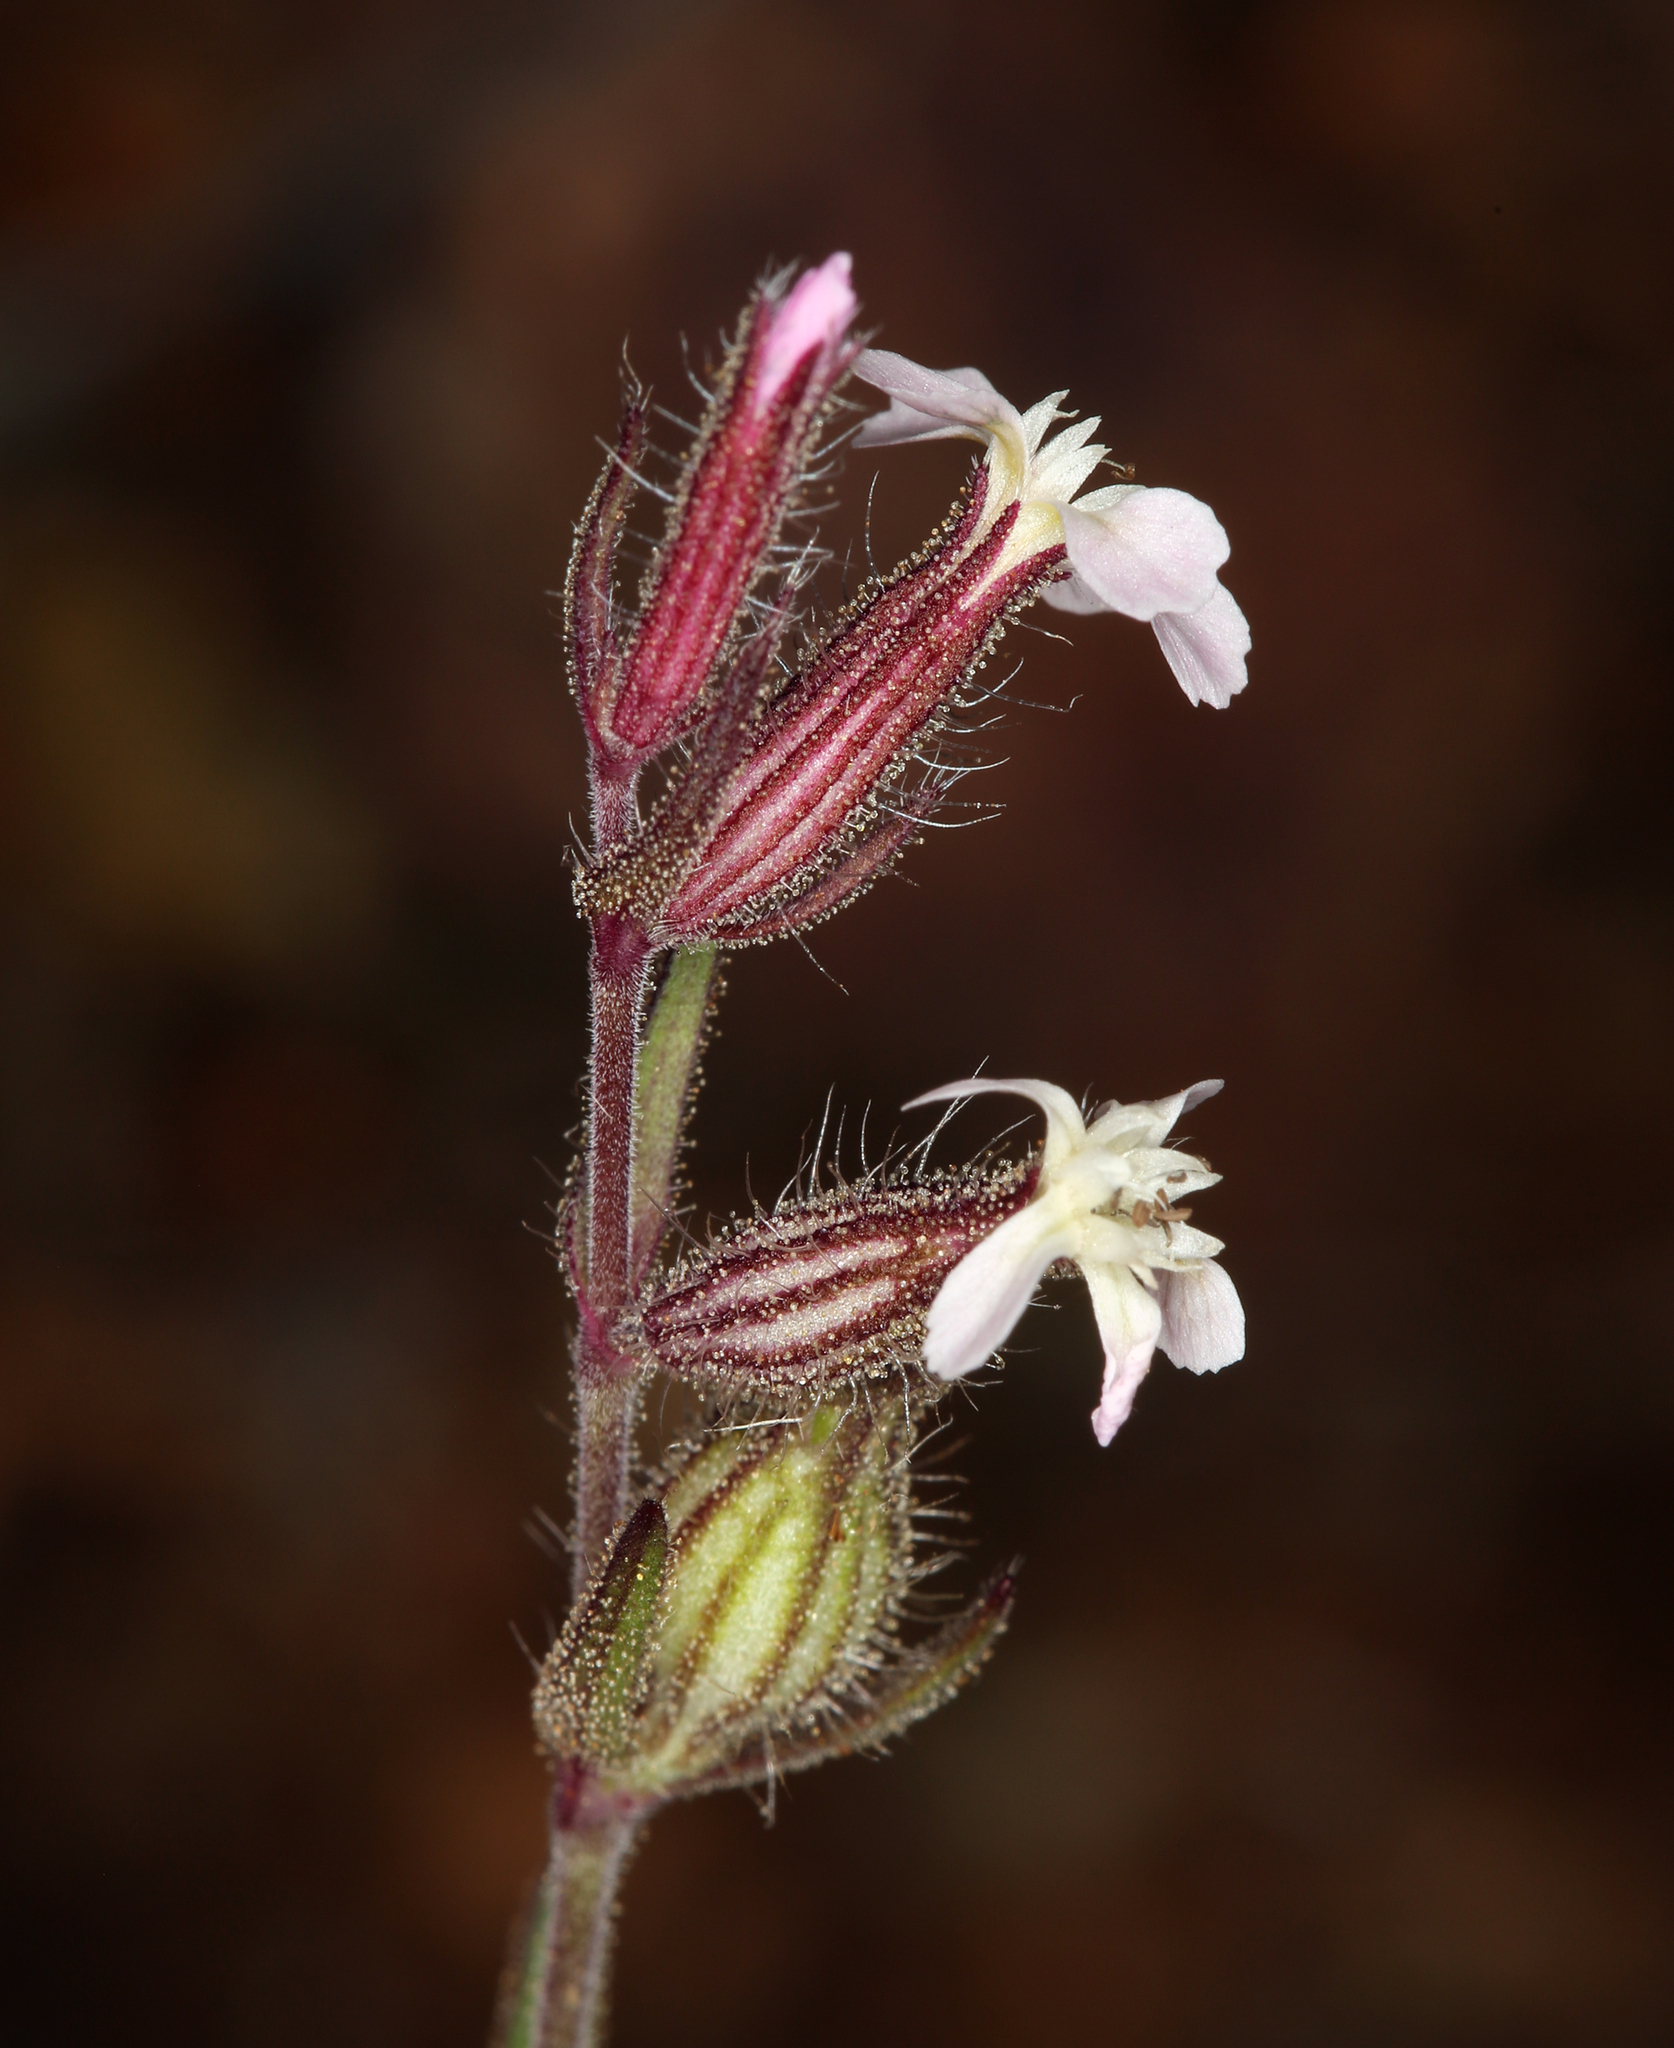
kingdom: Plantae
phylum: Tracheophyta
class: Magnoliopsida
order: Caryophyllales
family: Caryophyllaceae
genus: Silene
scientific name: Silene gallica
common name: Small-flowered catchfly
